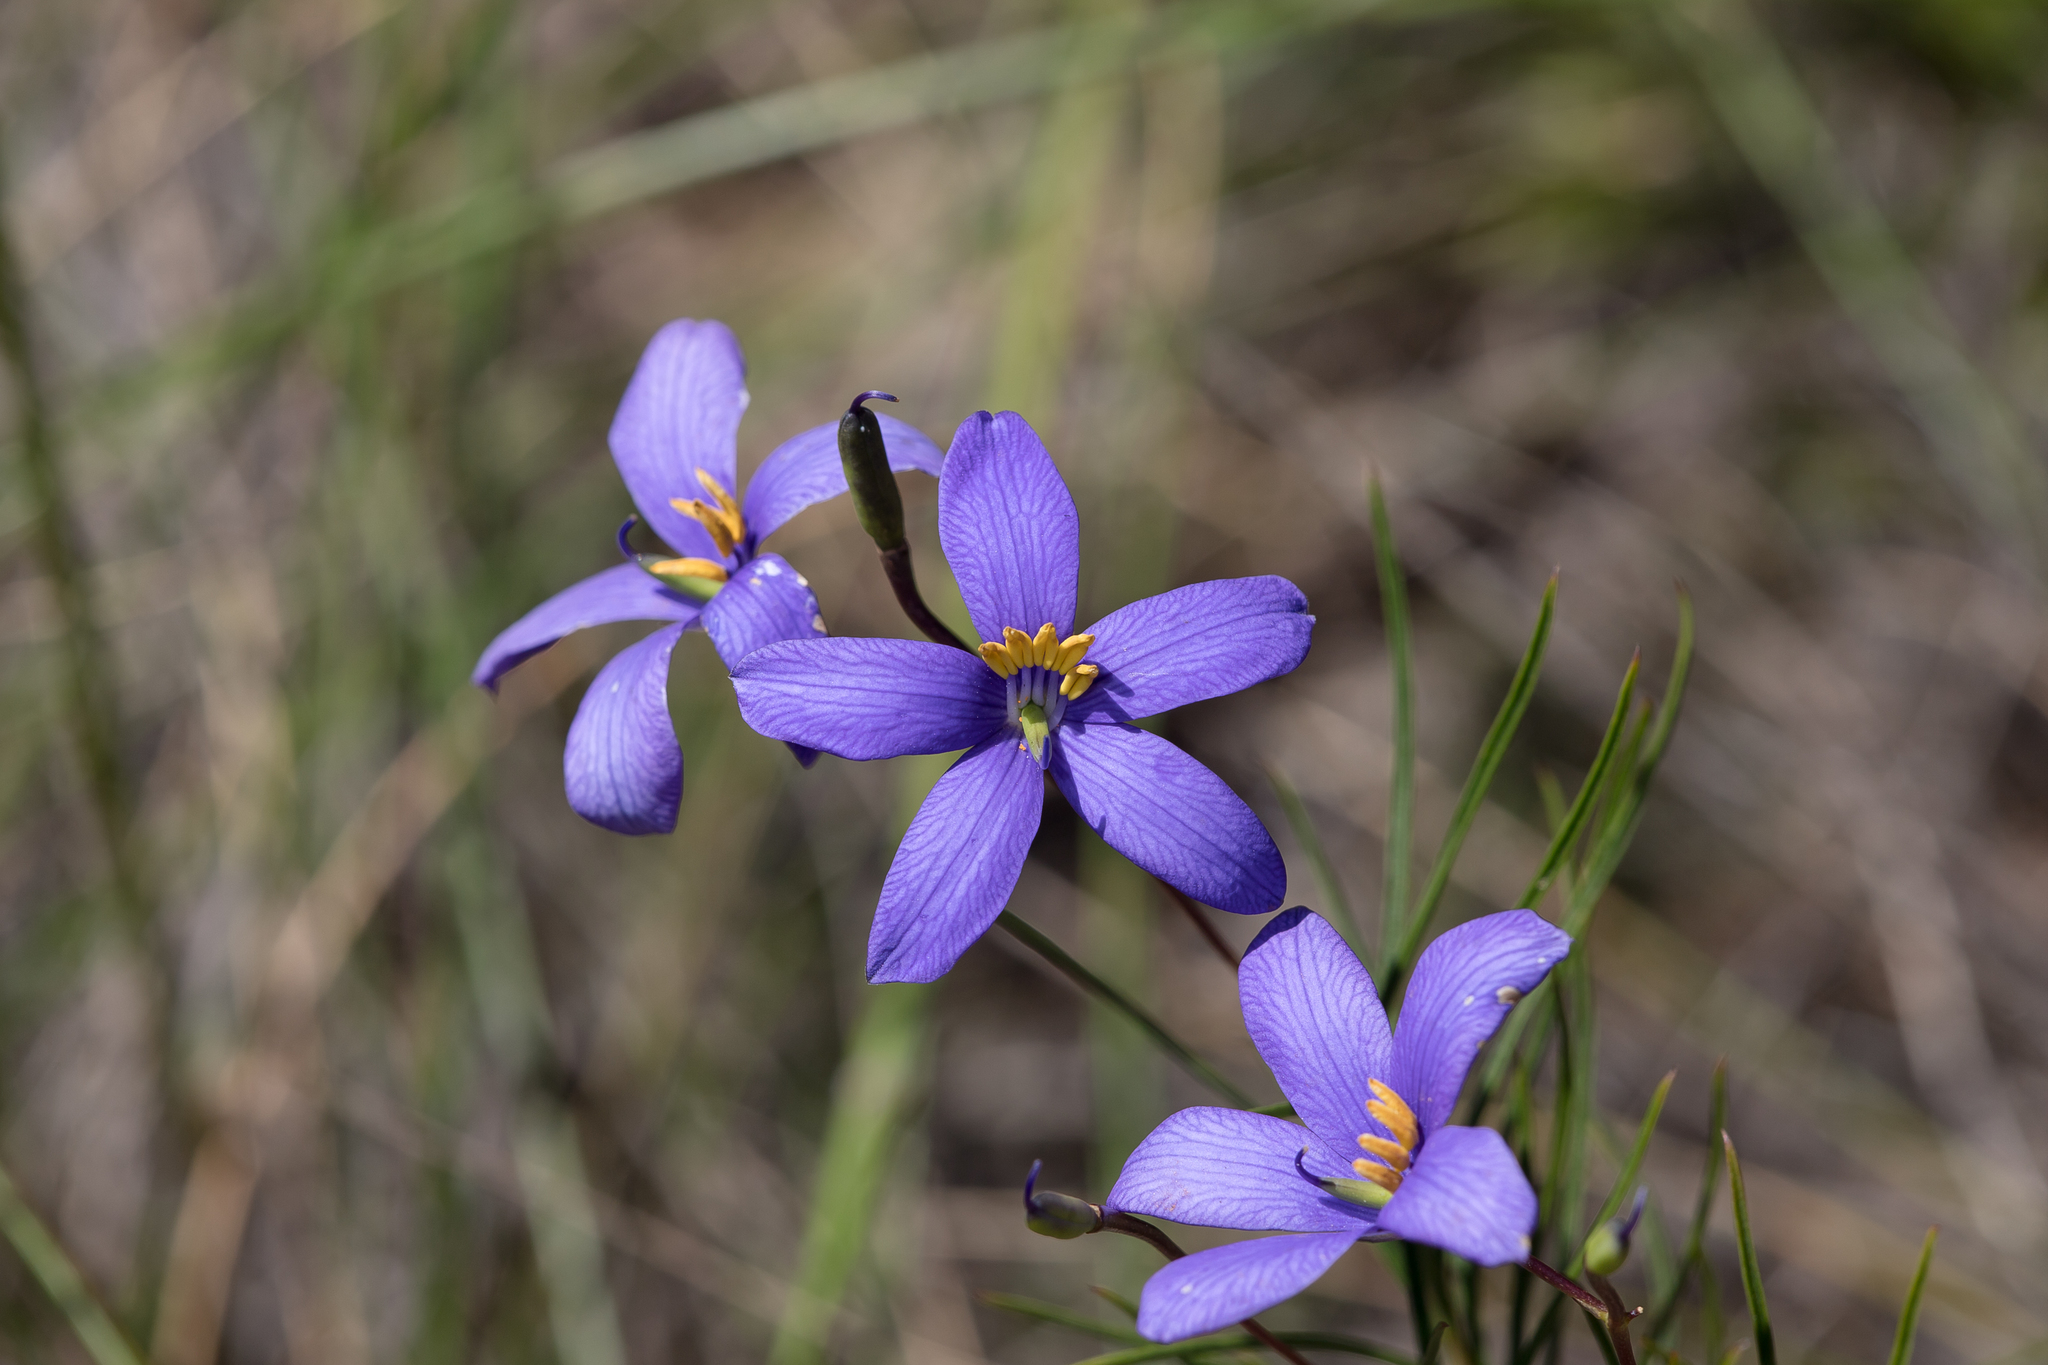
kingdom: Plantae
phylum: Tracheophyta
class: Magnoliopsida
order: Apiales
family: Pittosporaceae
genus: Cheiranthera
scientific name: Cheiranthera alternifolia
